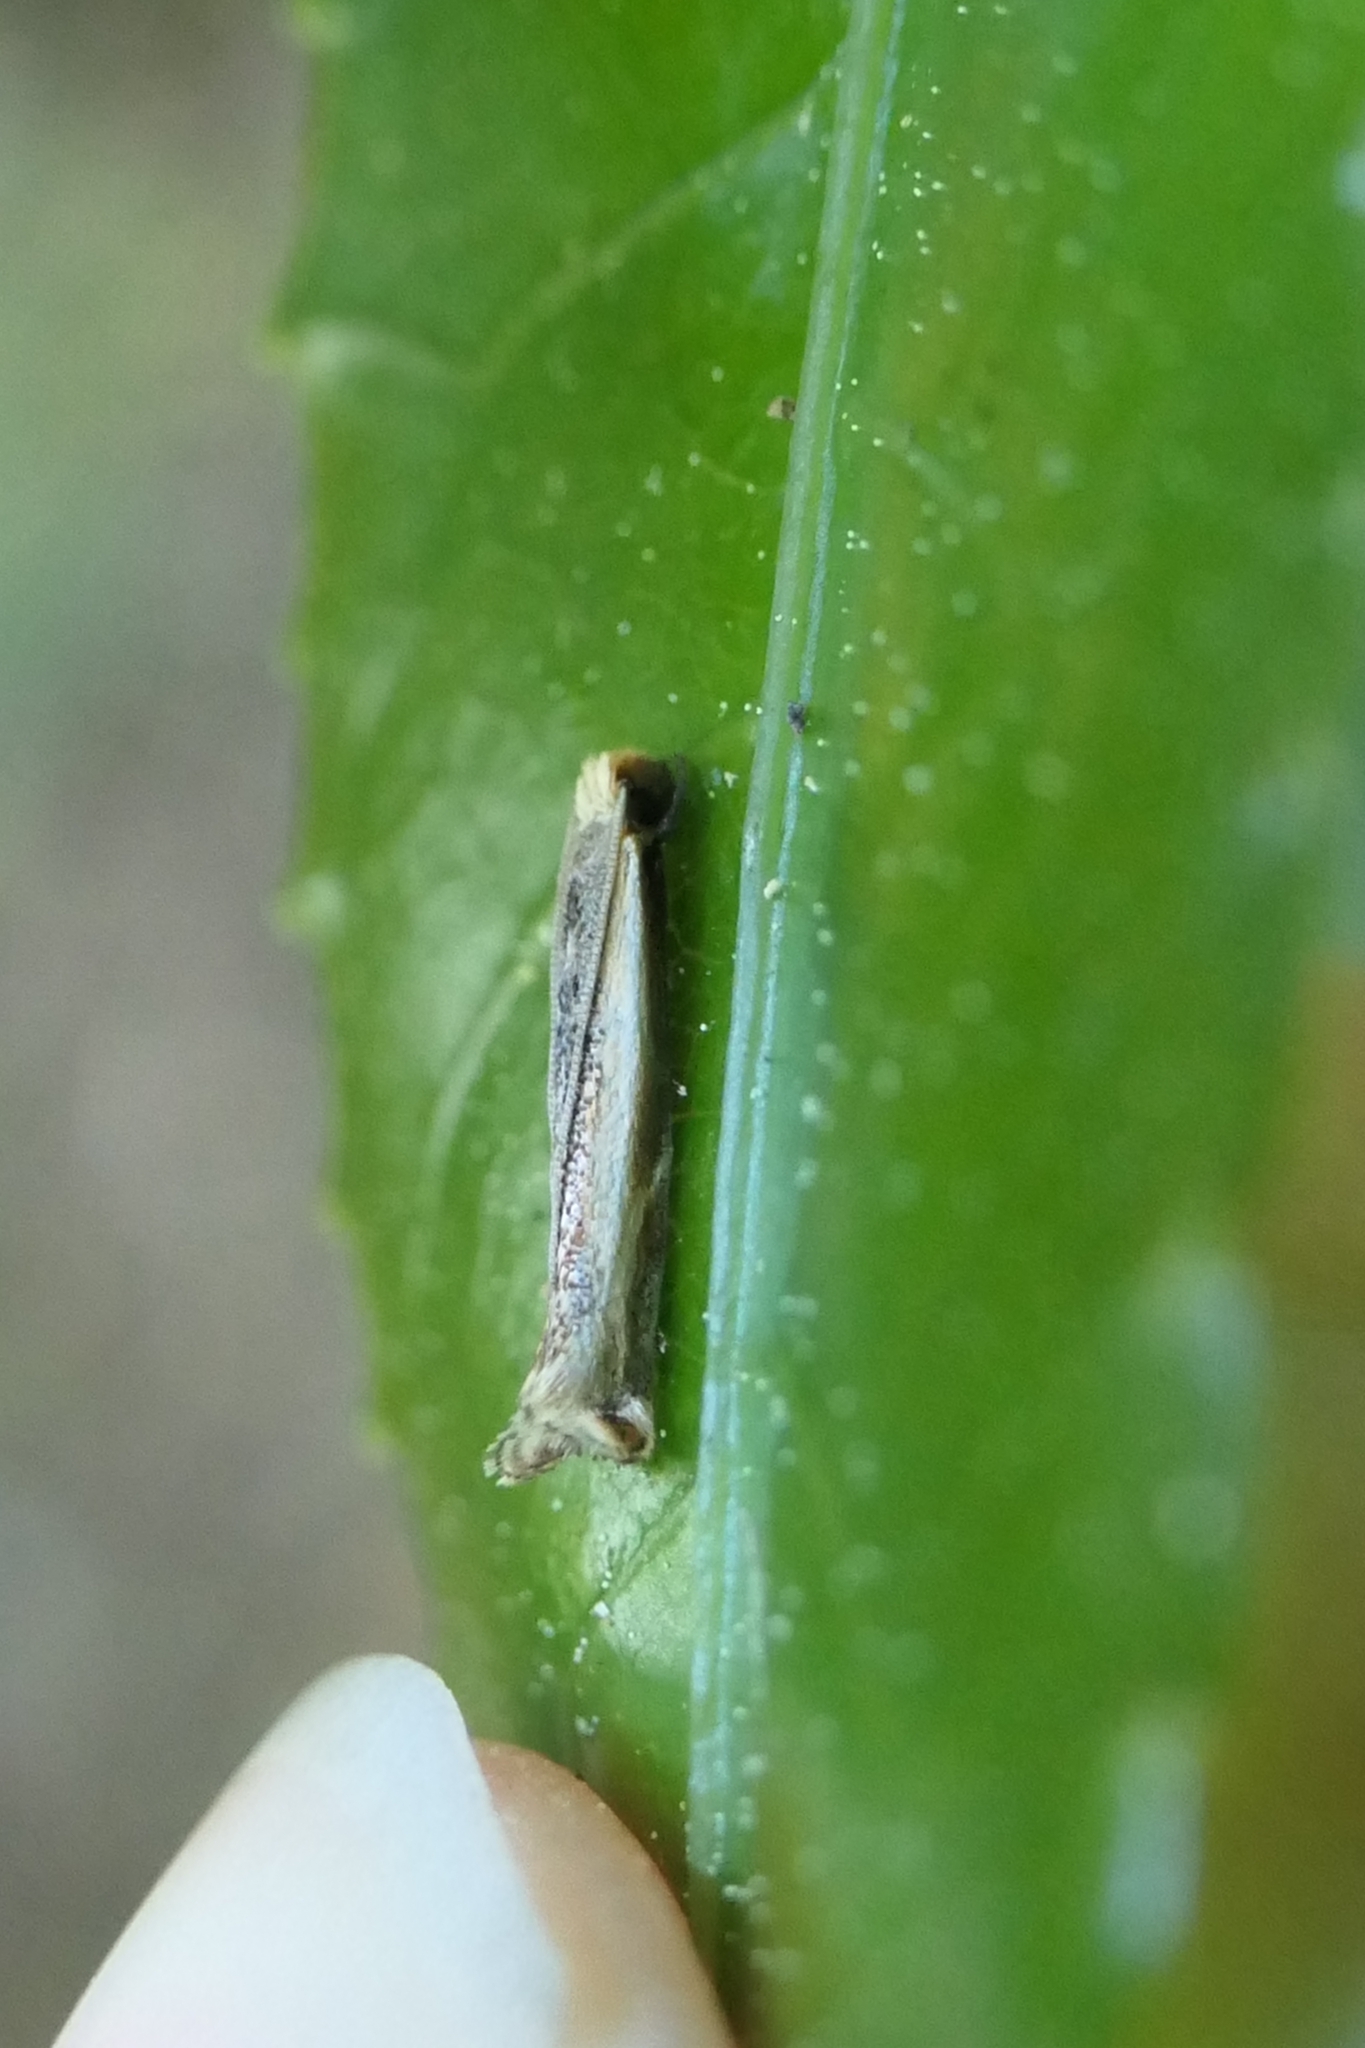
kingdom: Animalia
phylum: Arthropoda
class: Insecta
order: Lepidoptera
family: Tineidae
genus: Erechthias
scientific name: Erechthias charadrota
